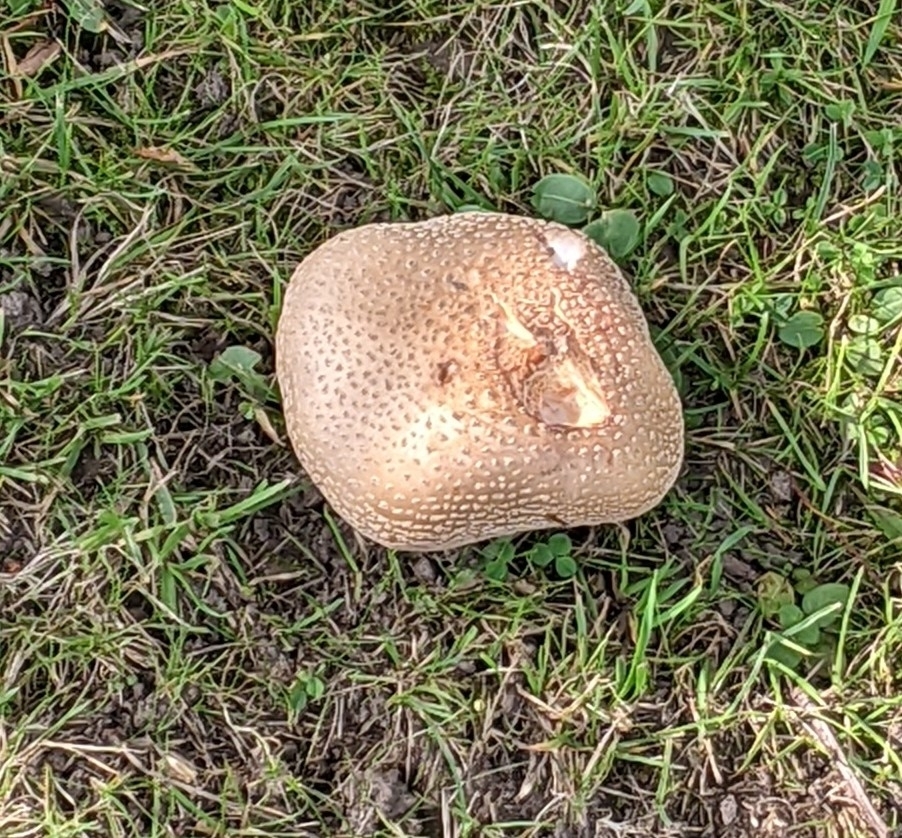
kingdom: Fungi
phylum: Basidiomycota
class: Agaricomycetes
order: Agaricales
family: Amanitaceae
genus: Amanita
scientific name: Amanita rubescens
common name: Blusher
